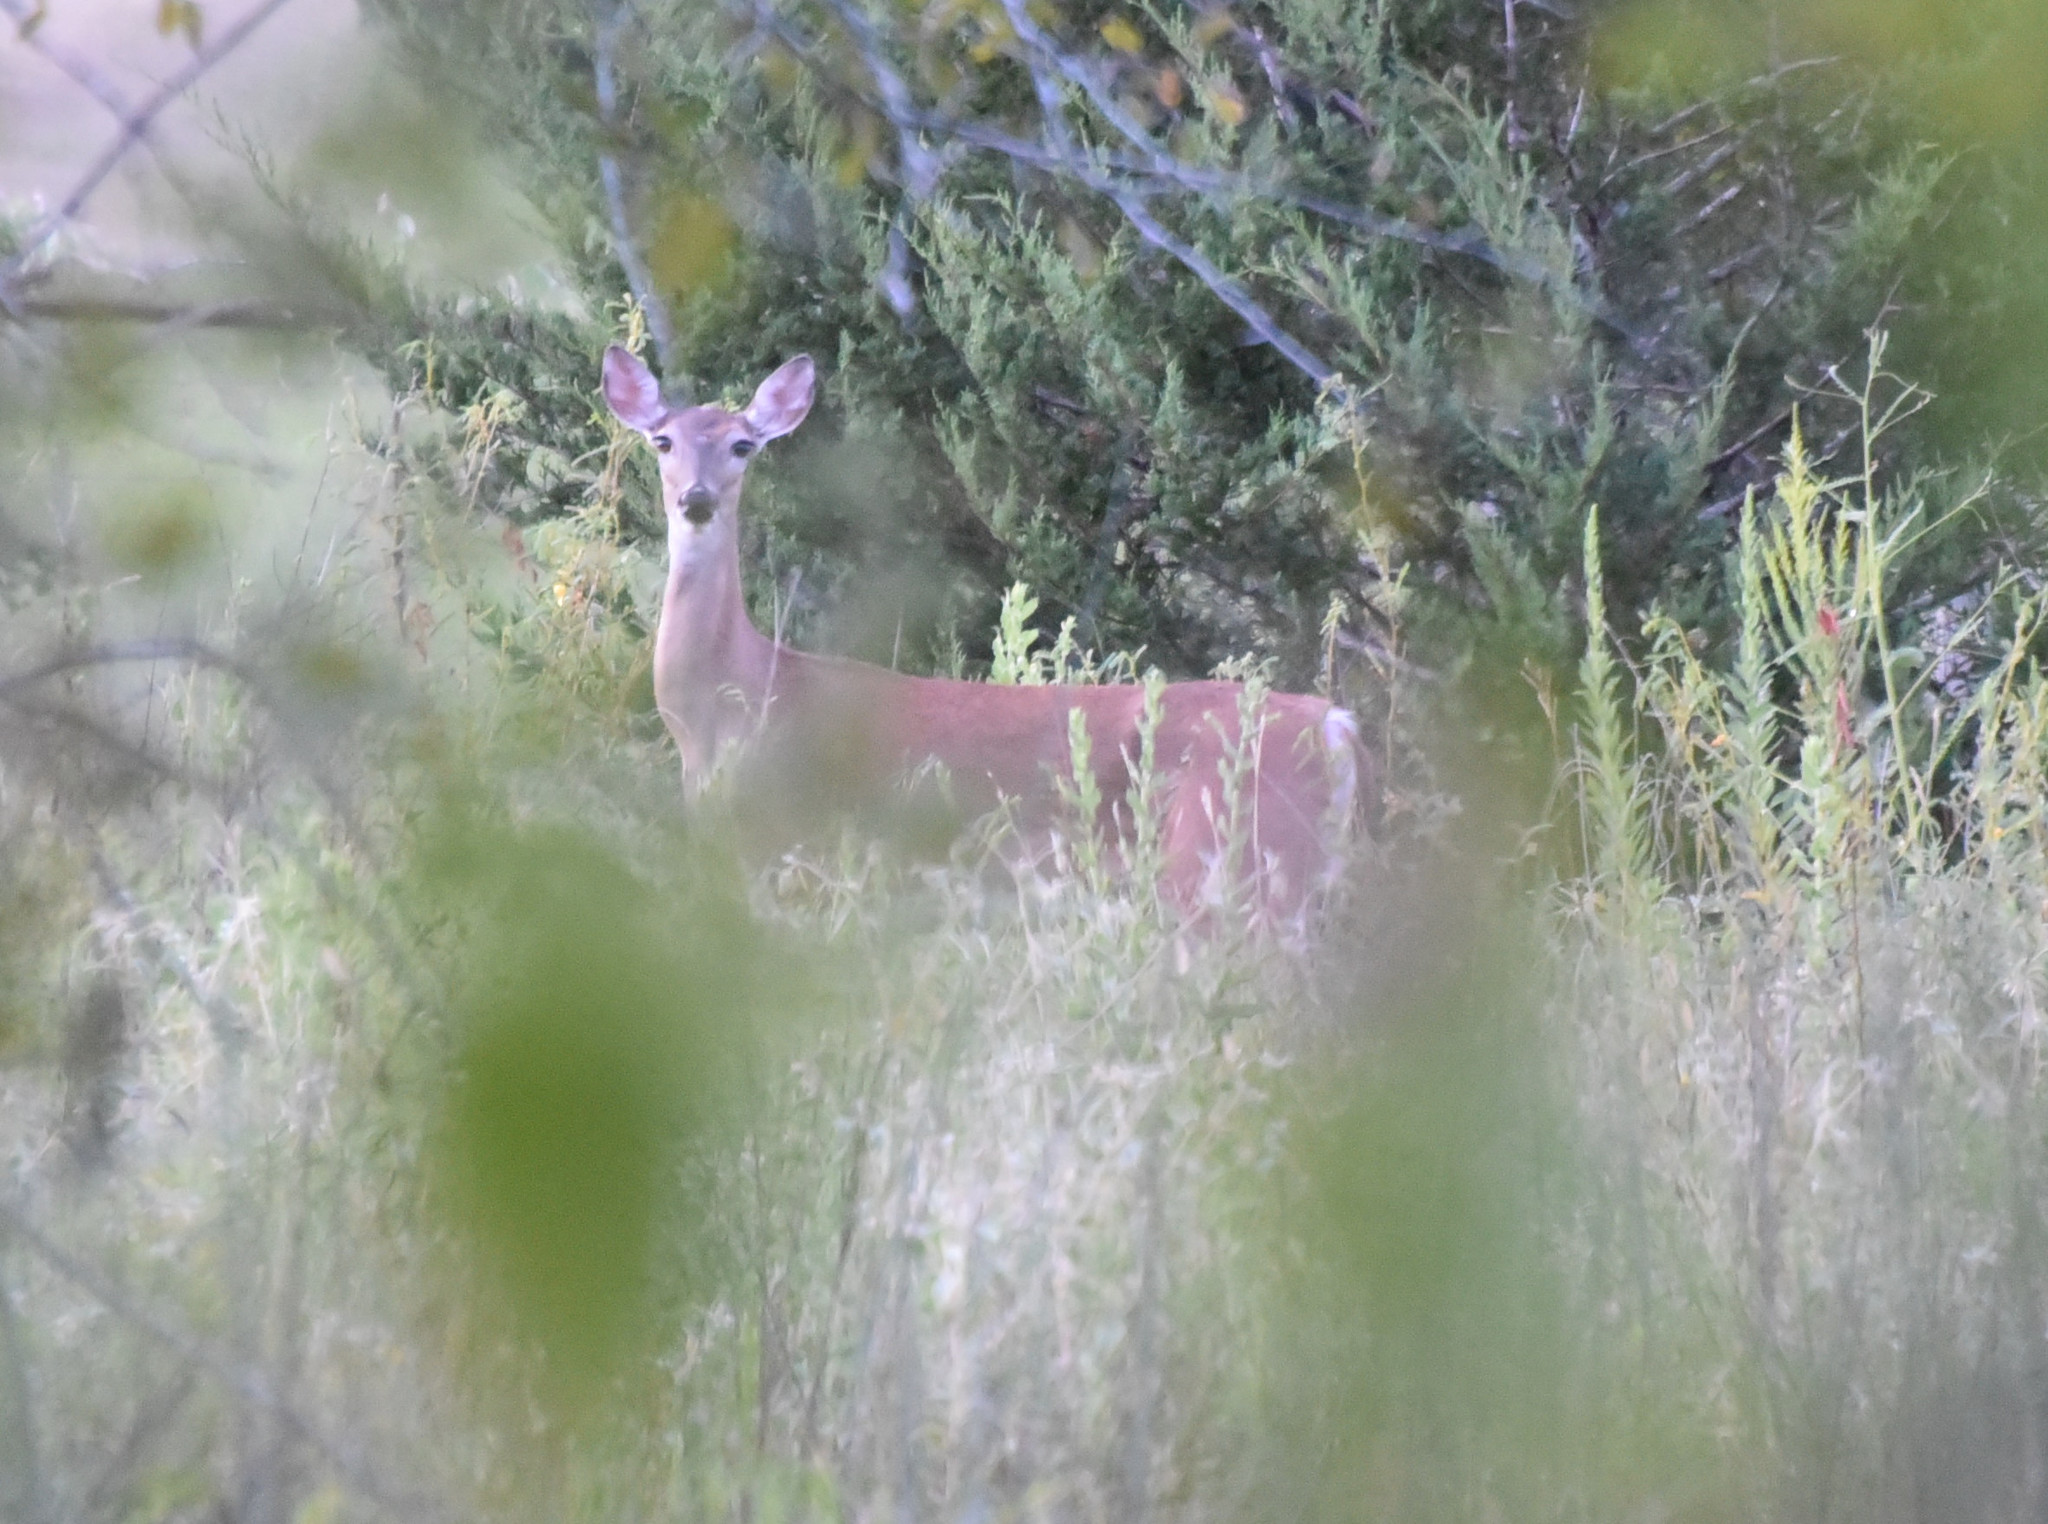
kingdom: Animalia
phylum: Chordata
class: Mammalia
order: Artiodactyla
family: Cervidae
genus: Odocoileus
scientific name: Odocoileus virginianus
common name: White-tailed deer
